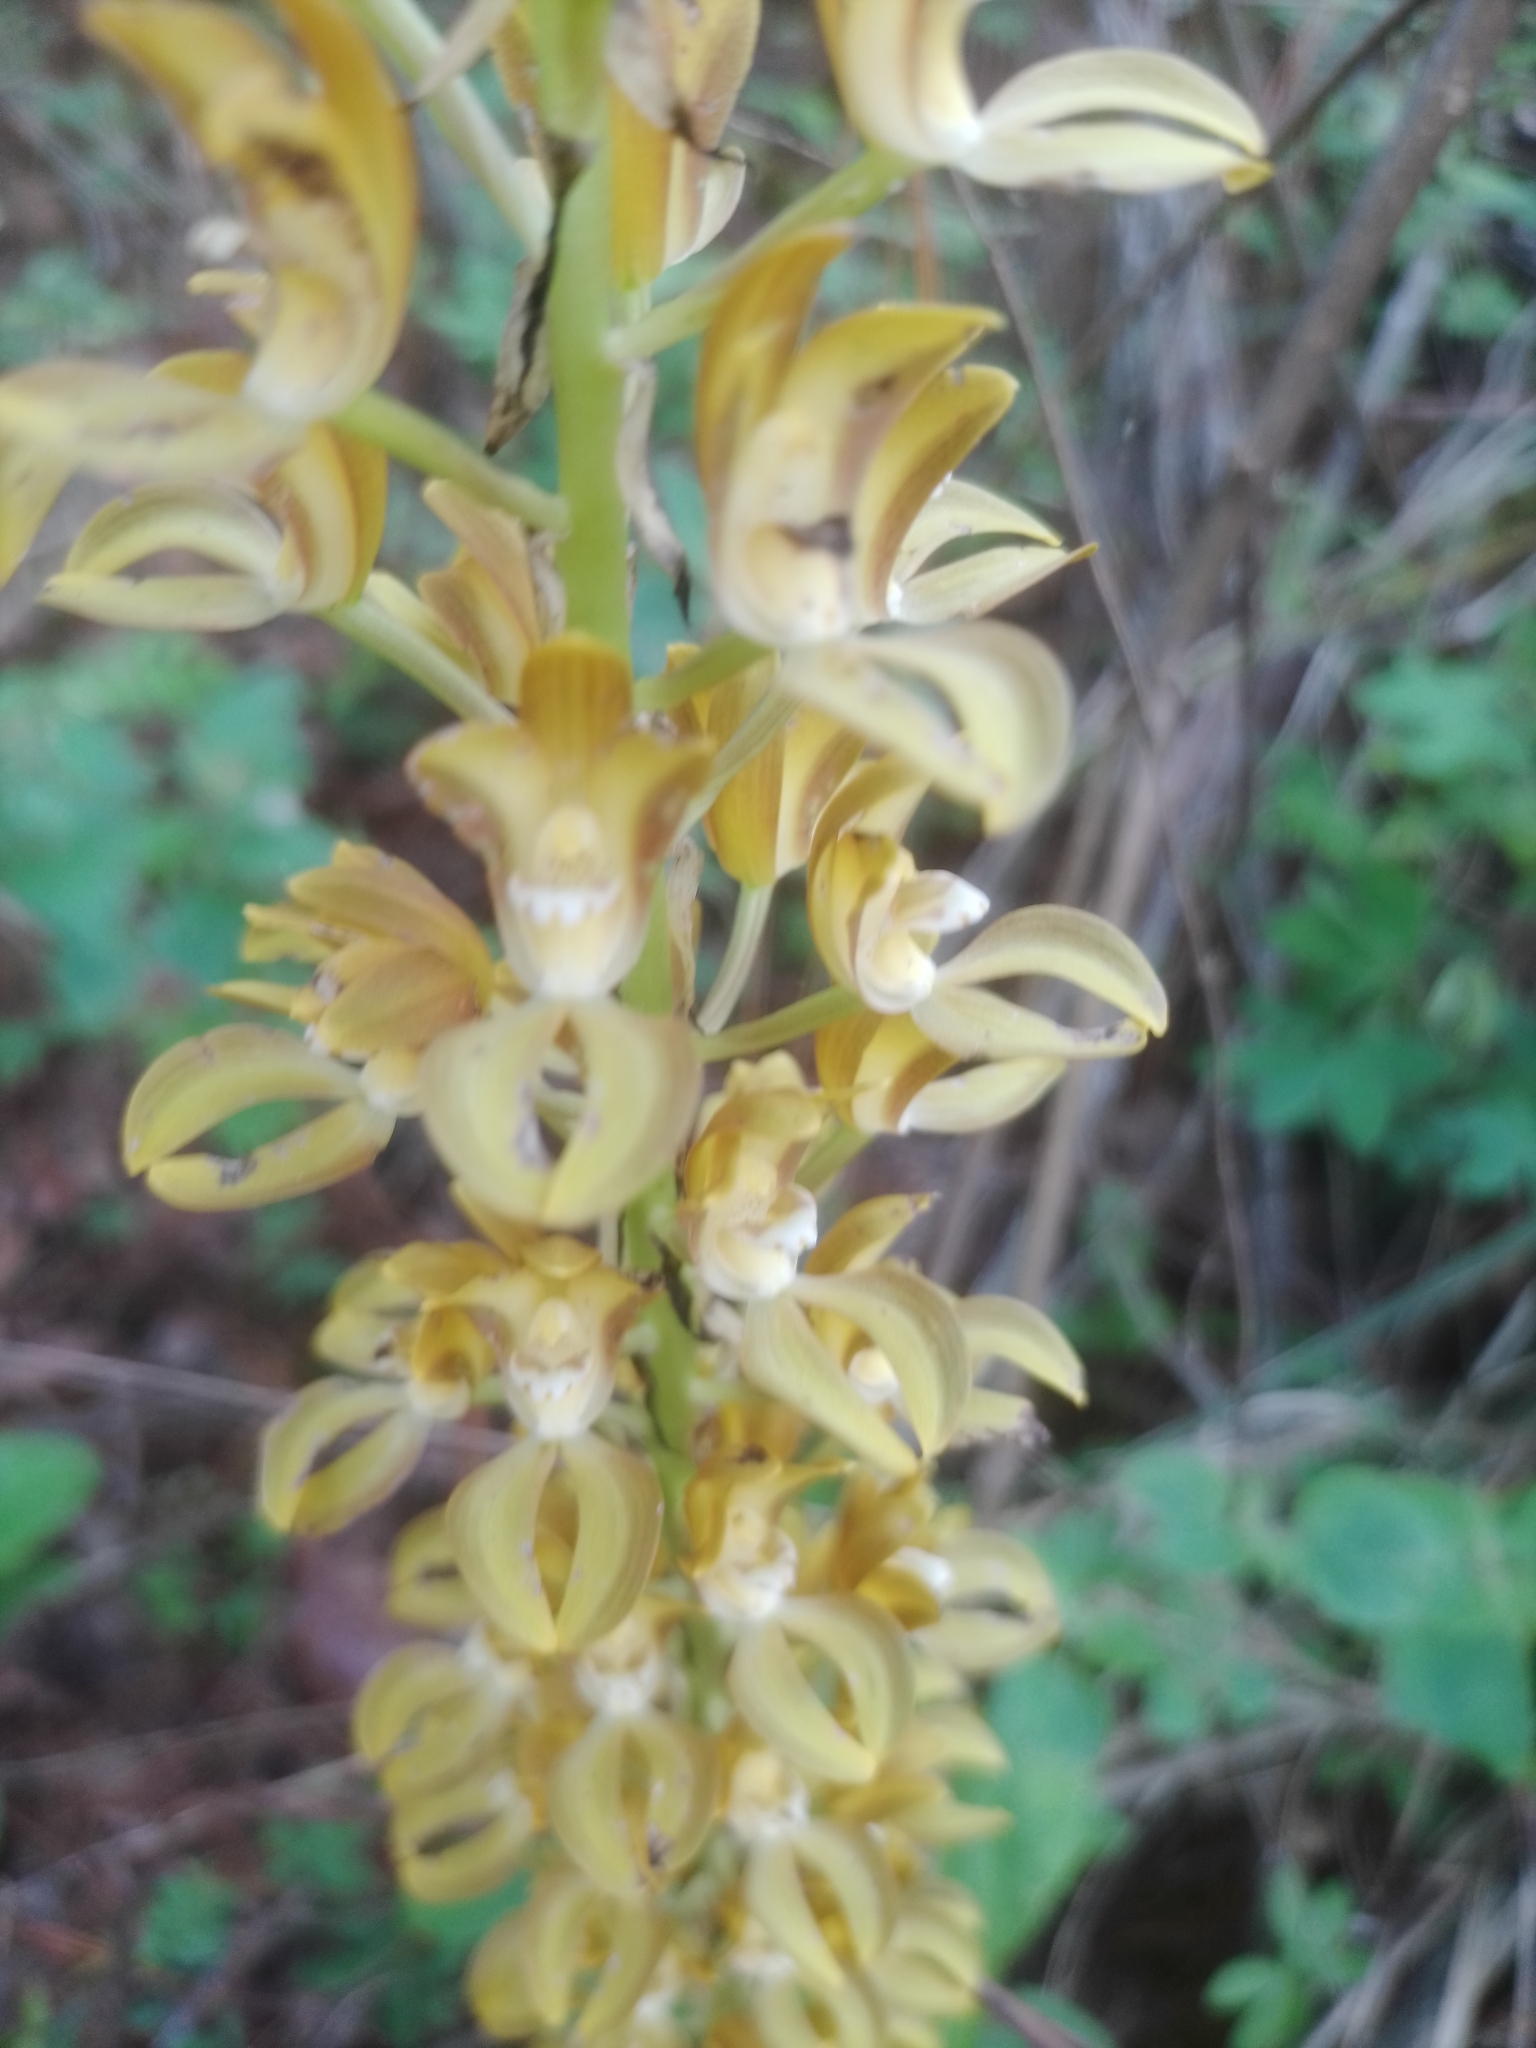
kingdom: Plantae
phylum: Tracheophyta
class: Liliopsida
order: Asparagales
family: Orchidaceae
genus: Govenia
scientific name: Govenia dressleriana
